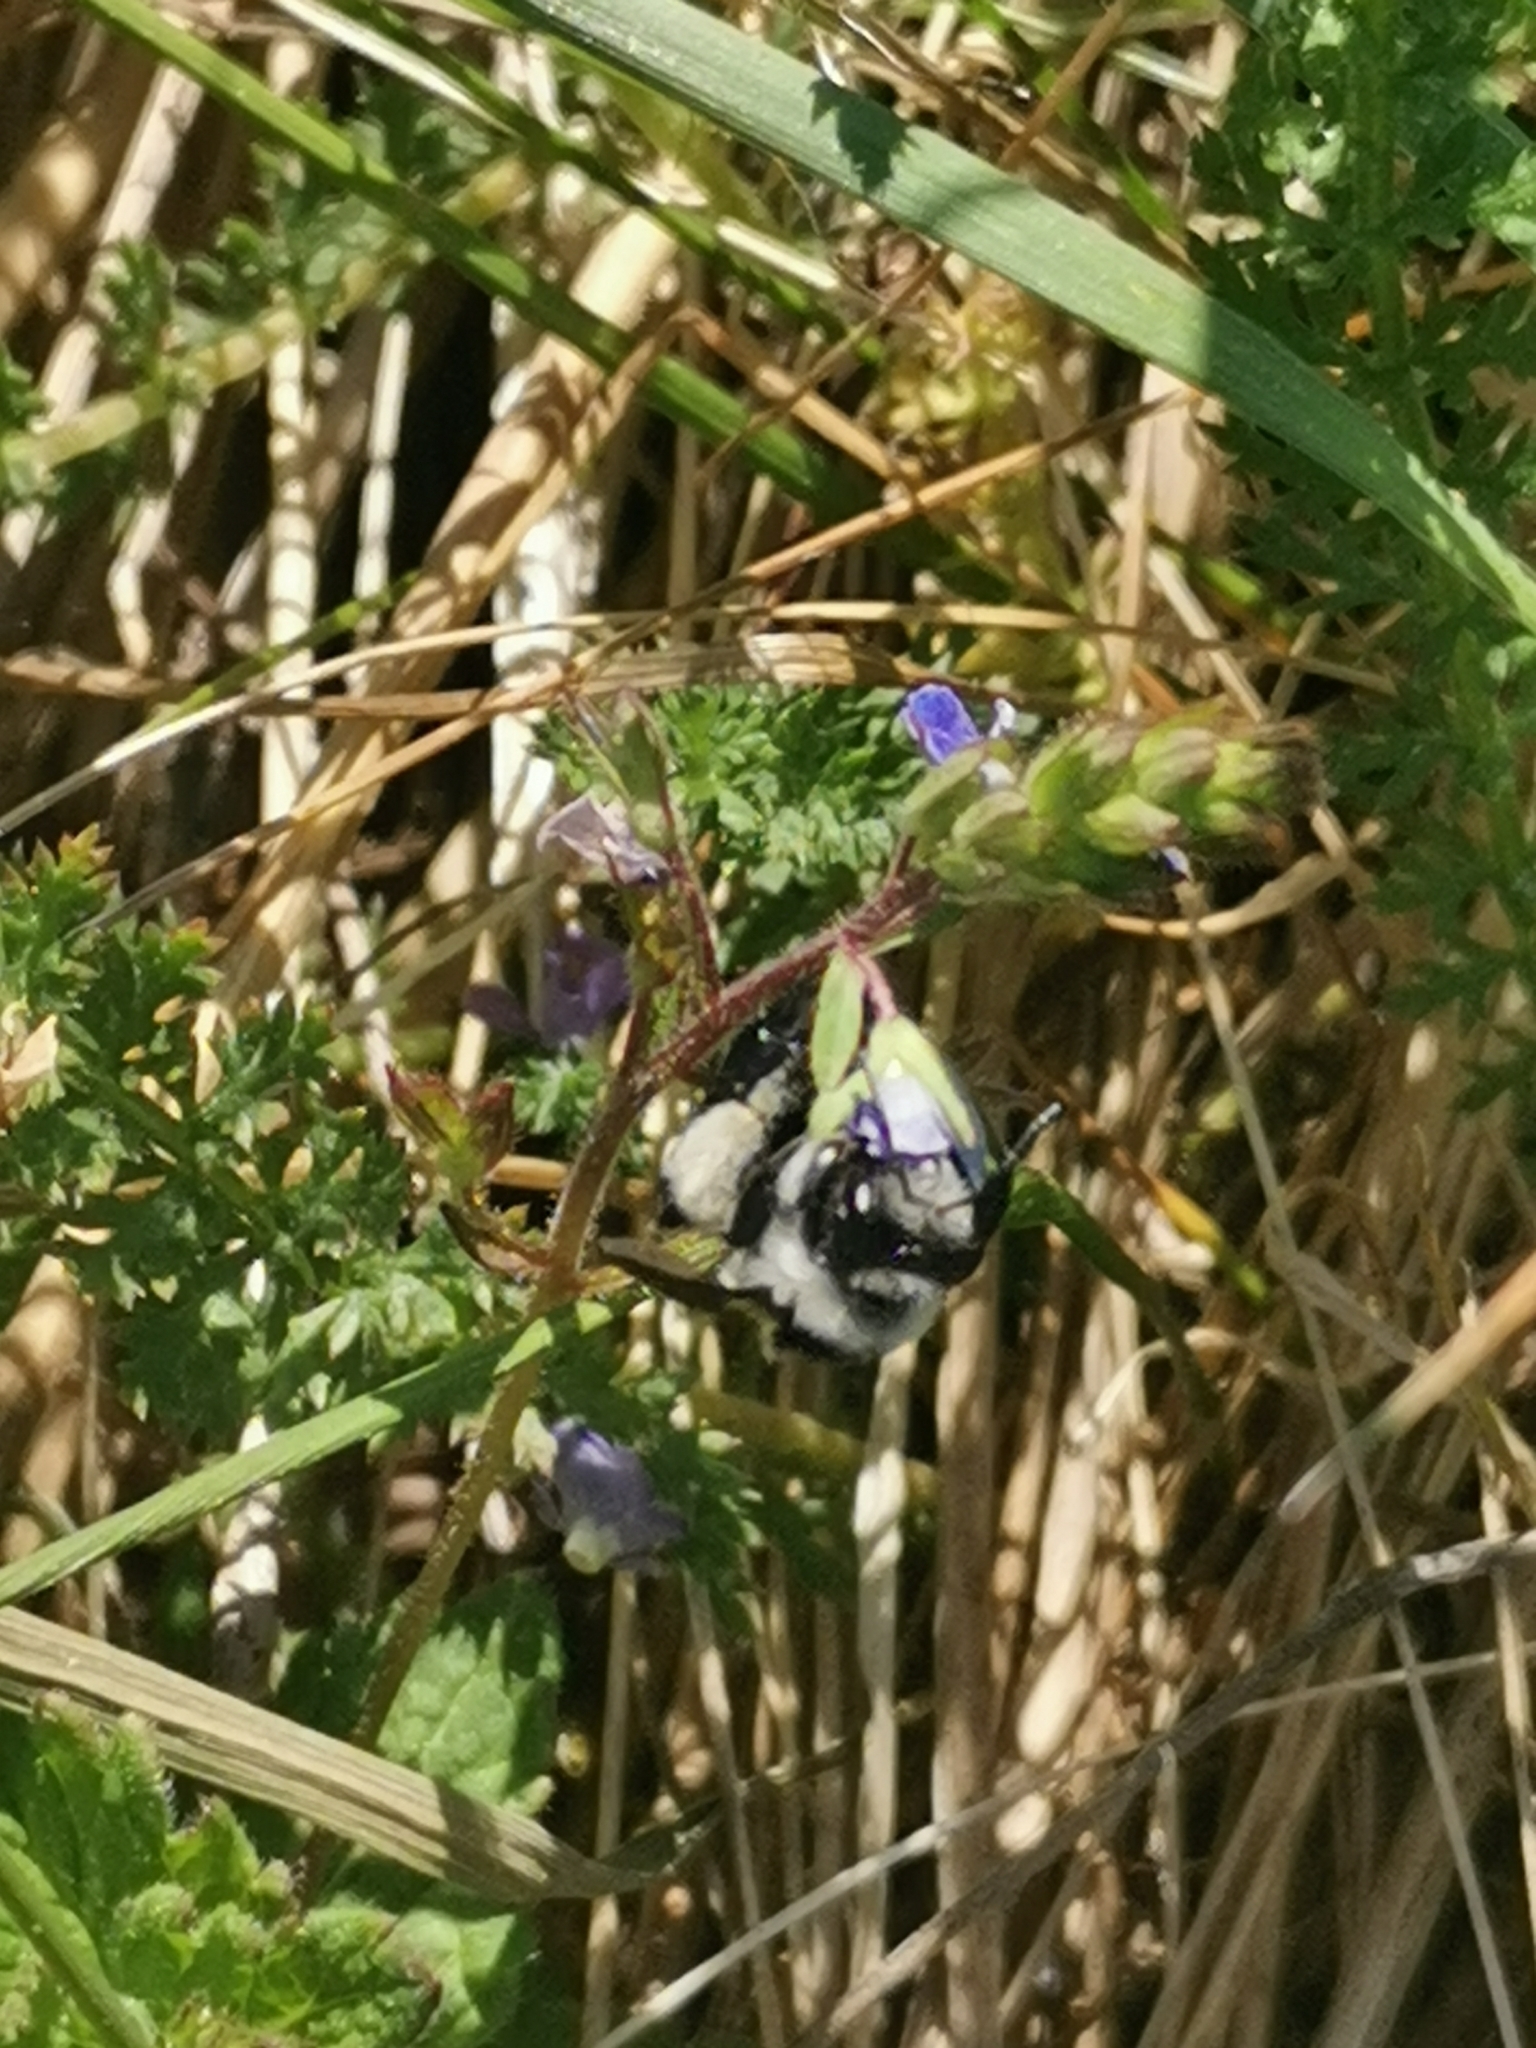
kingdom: Animalia
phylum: Arthropoda
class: Insecta
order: Hymenoptera
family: Andrenidae
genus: Andrena
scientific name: Andrena cineraria
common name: Ashy mining bee
